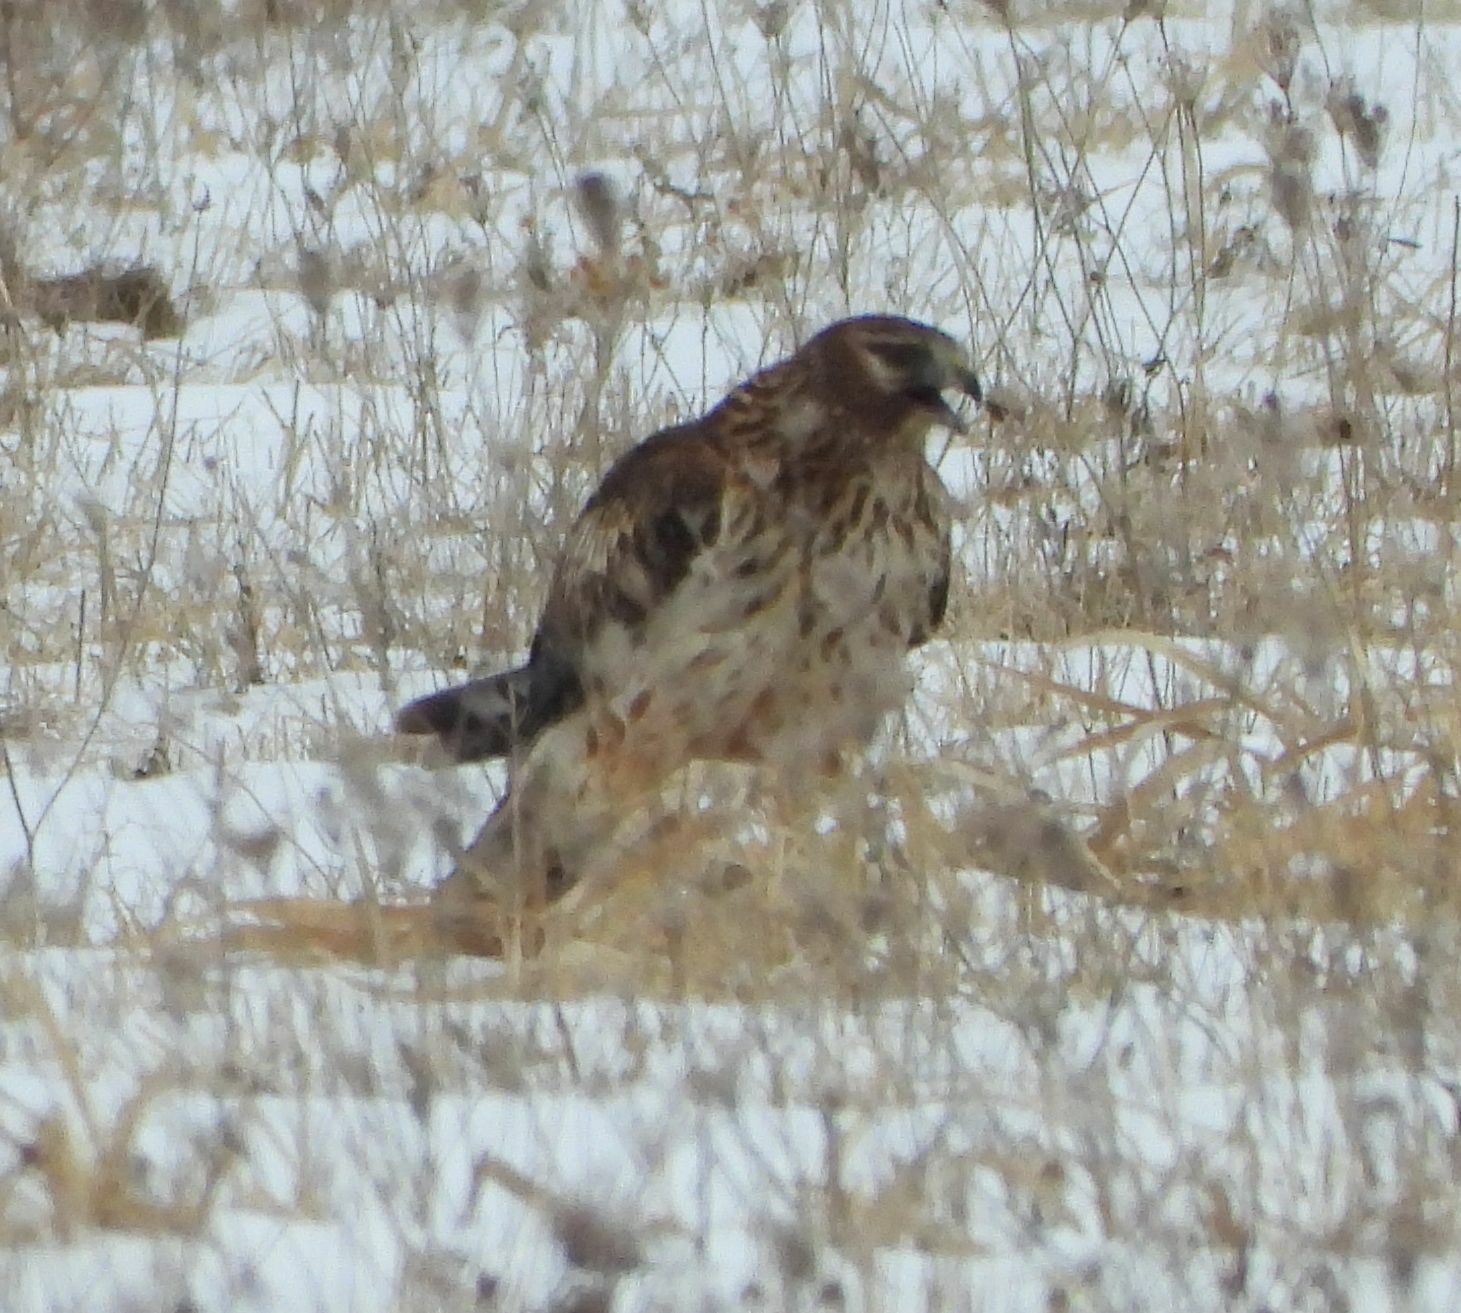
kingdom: Animalia
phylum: Chordata
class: Aves
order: Accipitriformes
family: Accipitridae
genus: Circus
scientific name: Circus cyaneus
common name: Hen harrier
